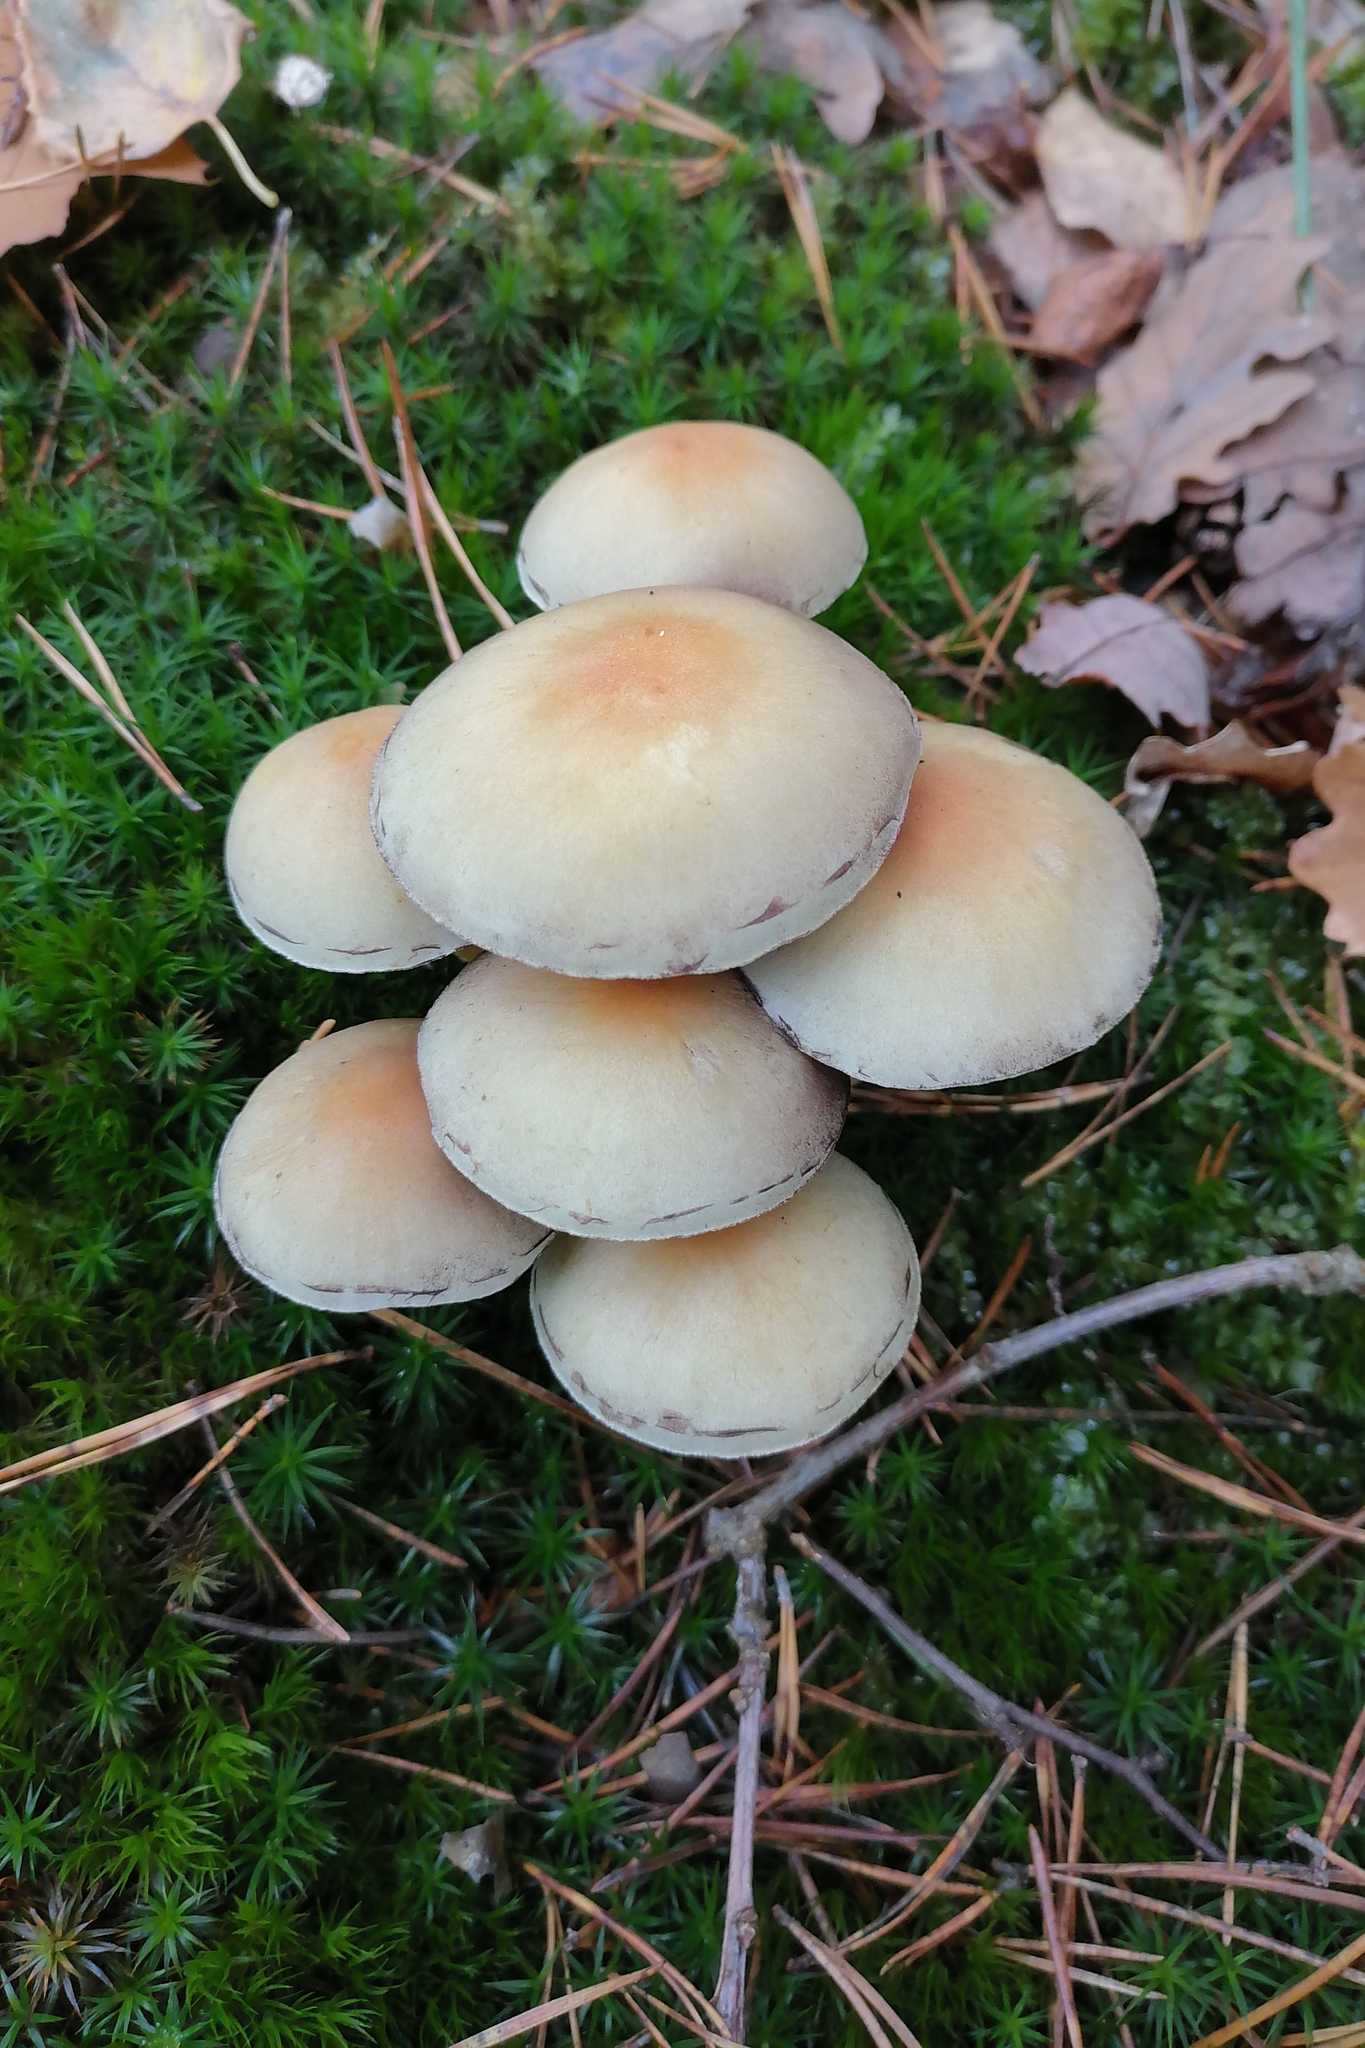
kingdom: Fungi
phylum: Basidiomycota
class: Agaricomycetes
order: Agaricales
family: Strophariaceae
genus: Hypholoma
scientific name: Hypholoma fasciculare
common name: Sulphur tuft
